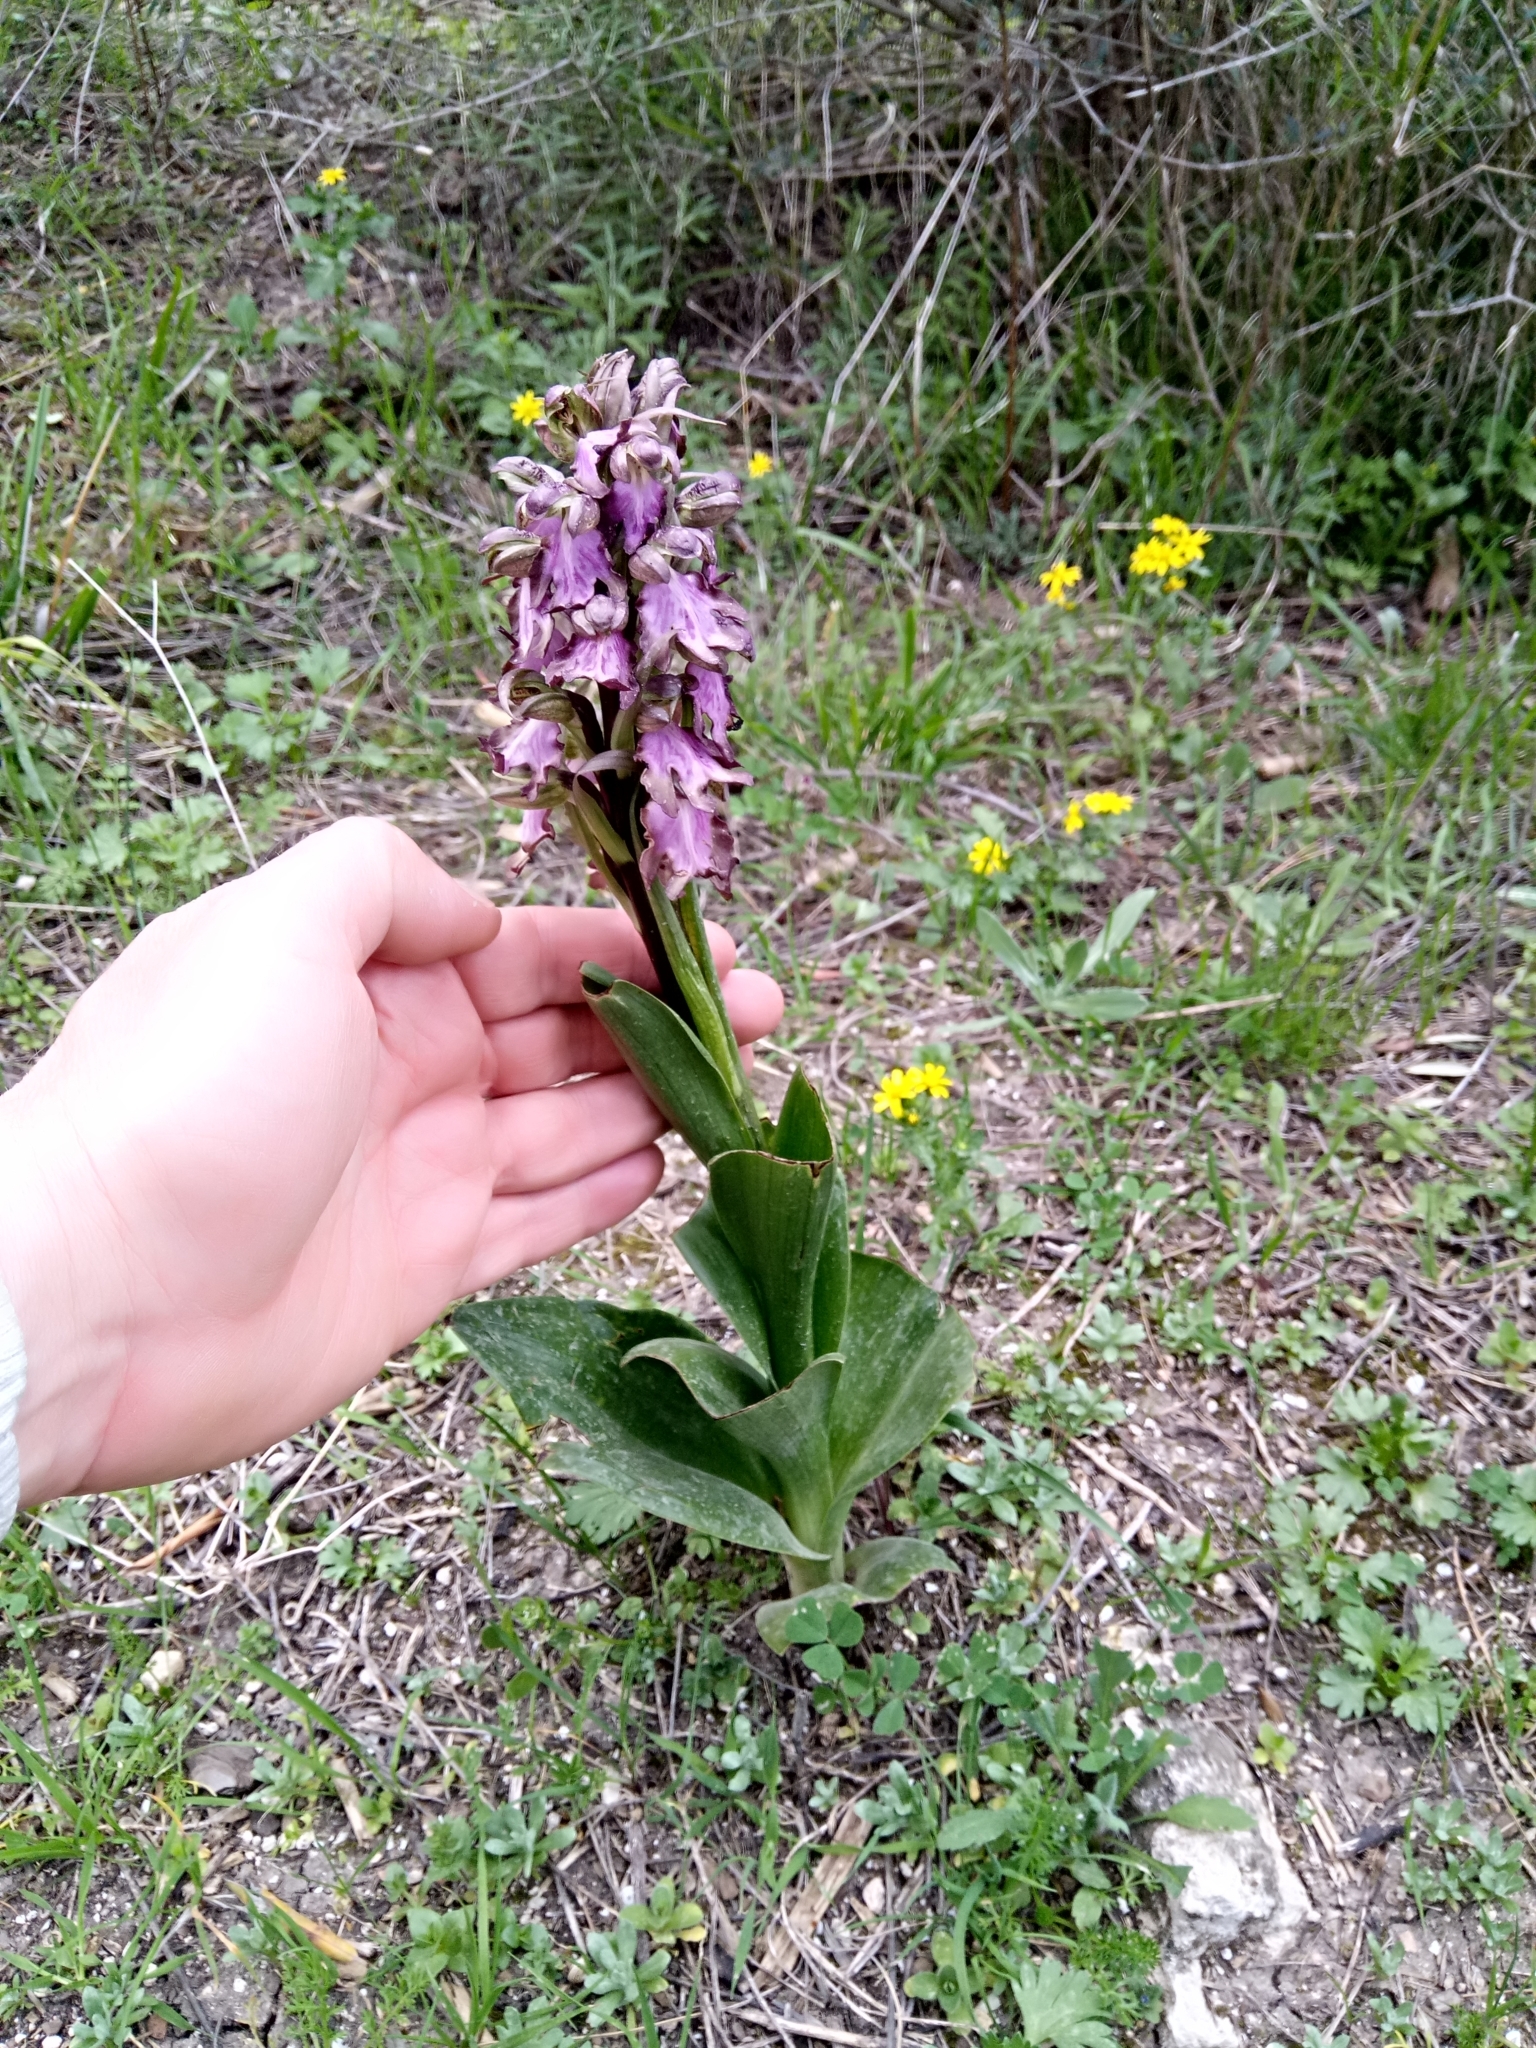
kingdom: Plantae
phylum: Tracheophyta
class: Liliopsida
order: Asparagales
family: Orchidaceae
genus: Himantoglossum
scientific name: Himantoglossum robertianum
